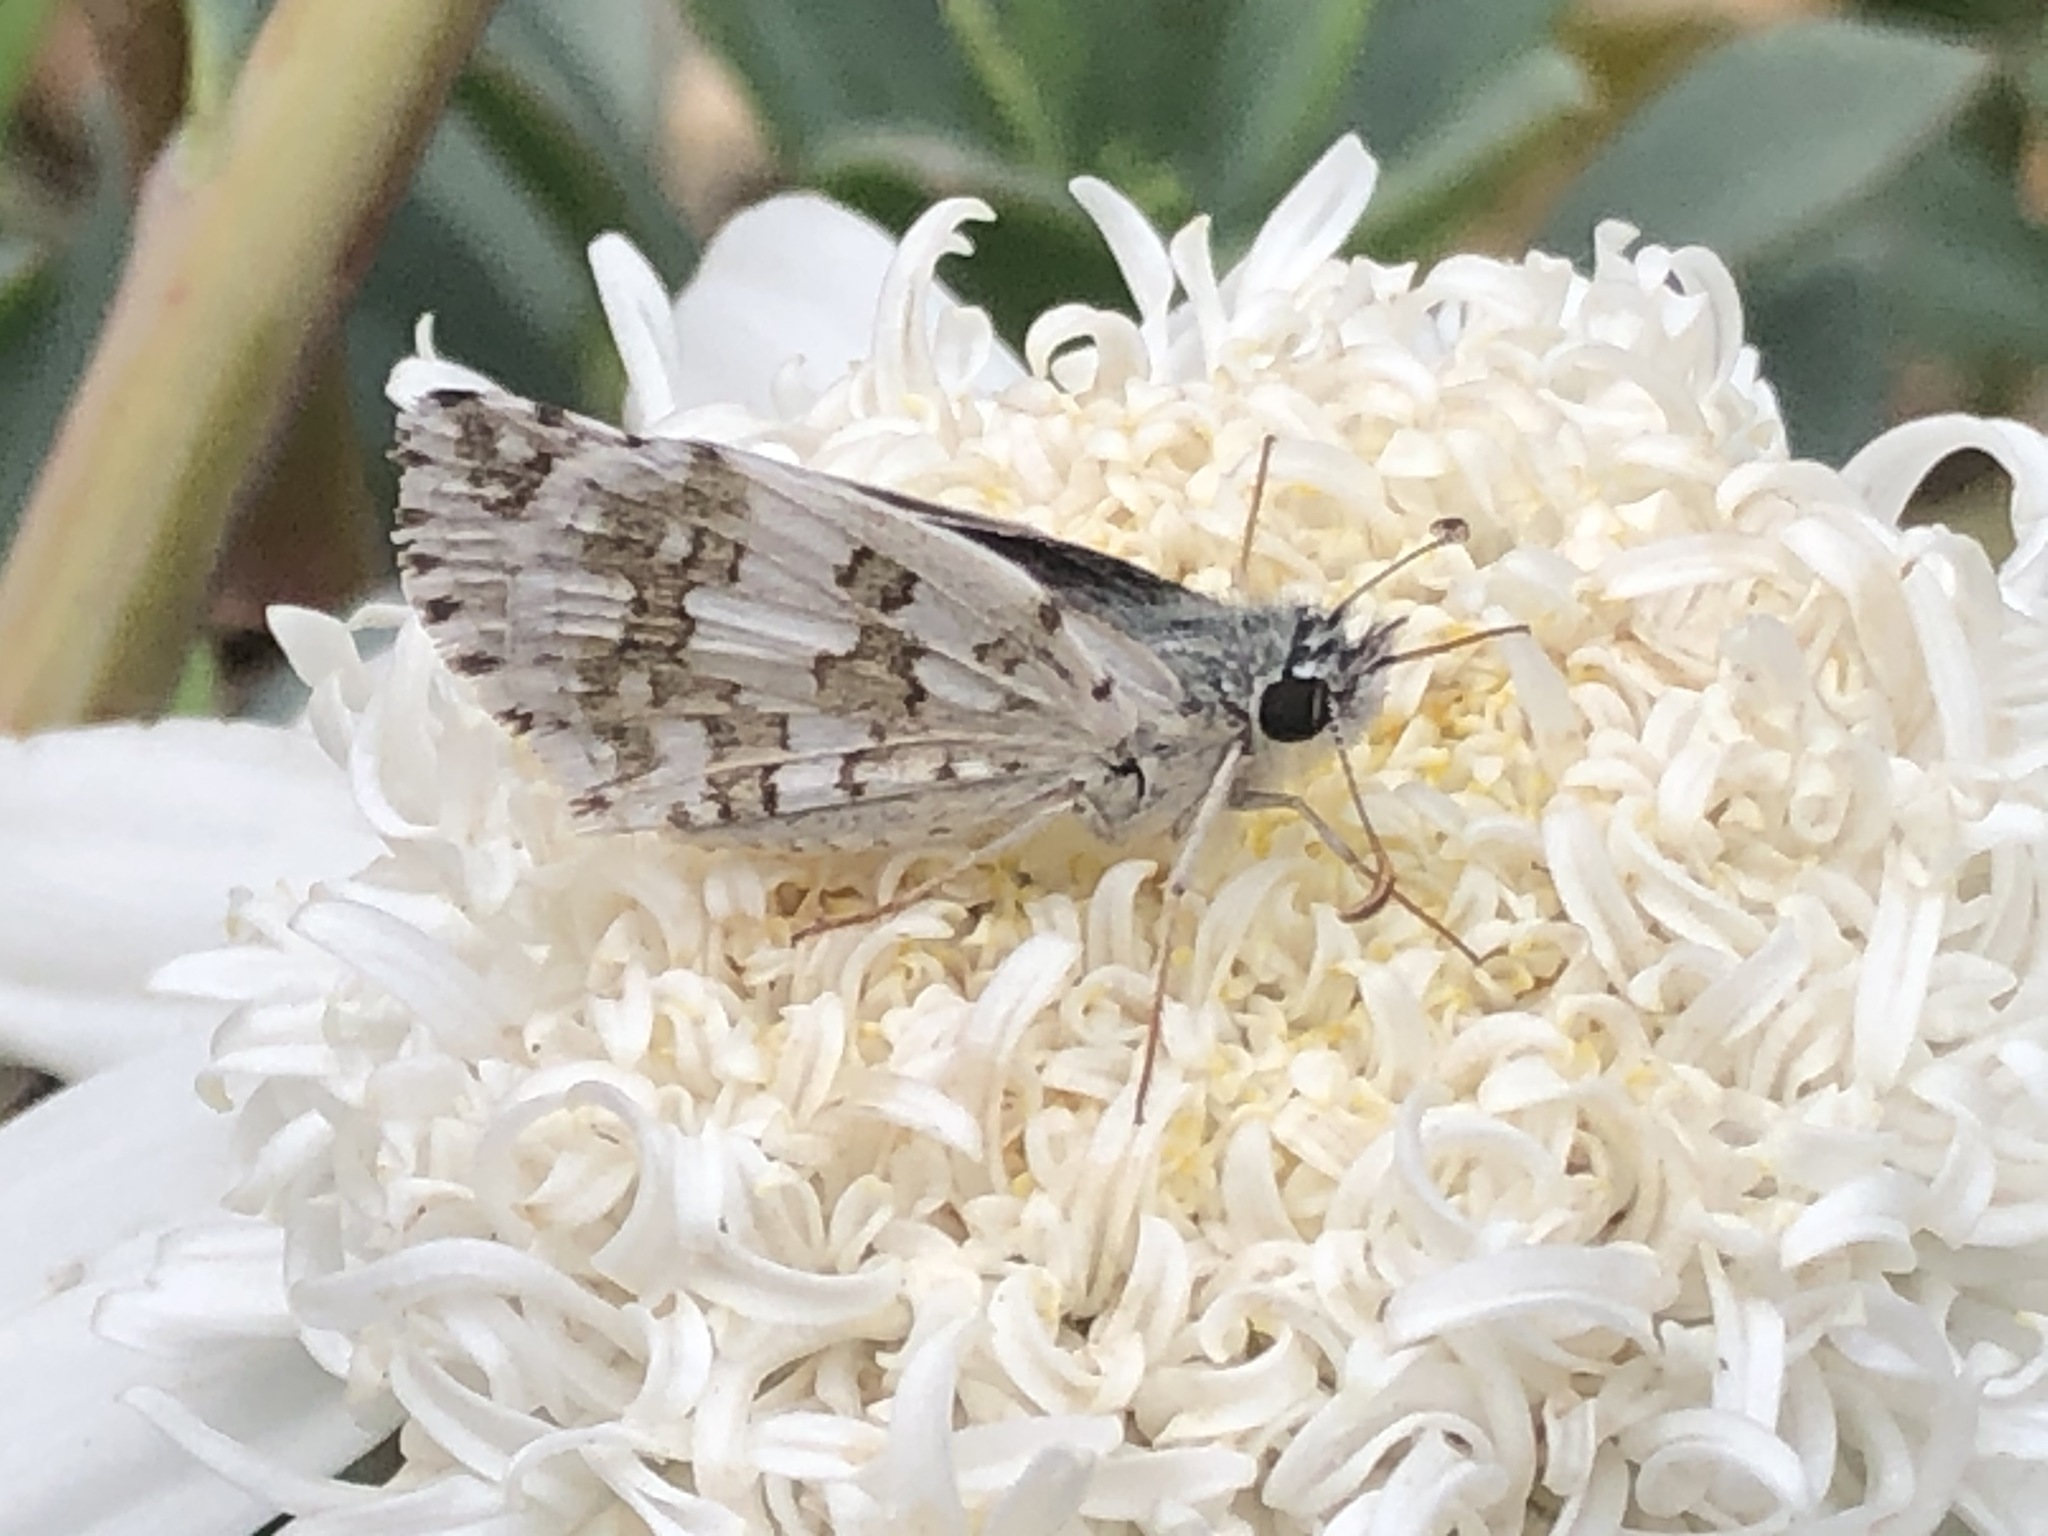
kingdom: Animalia
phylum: Arthropoda
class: Insecta
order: Lepidoptera
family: Hesperiidae
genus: Burnsius
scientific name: Burnsius communis
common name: Common checkered-skipper
